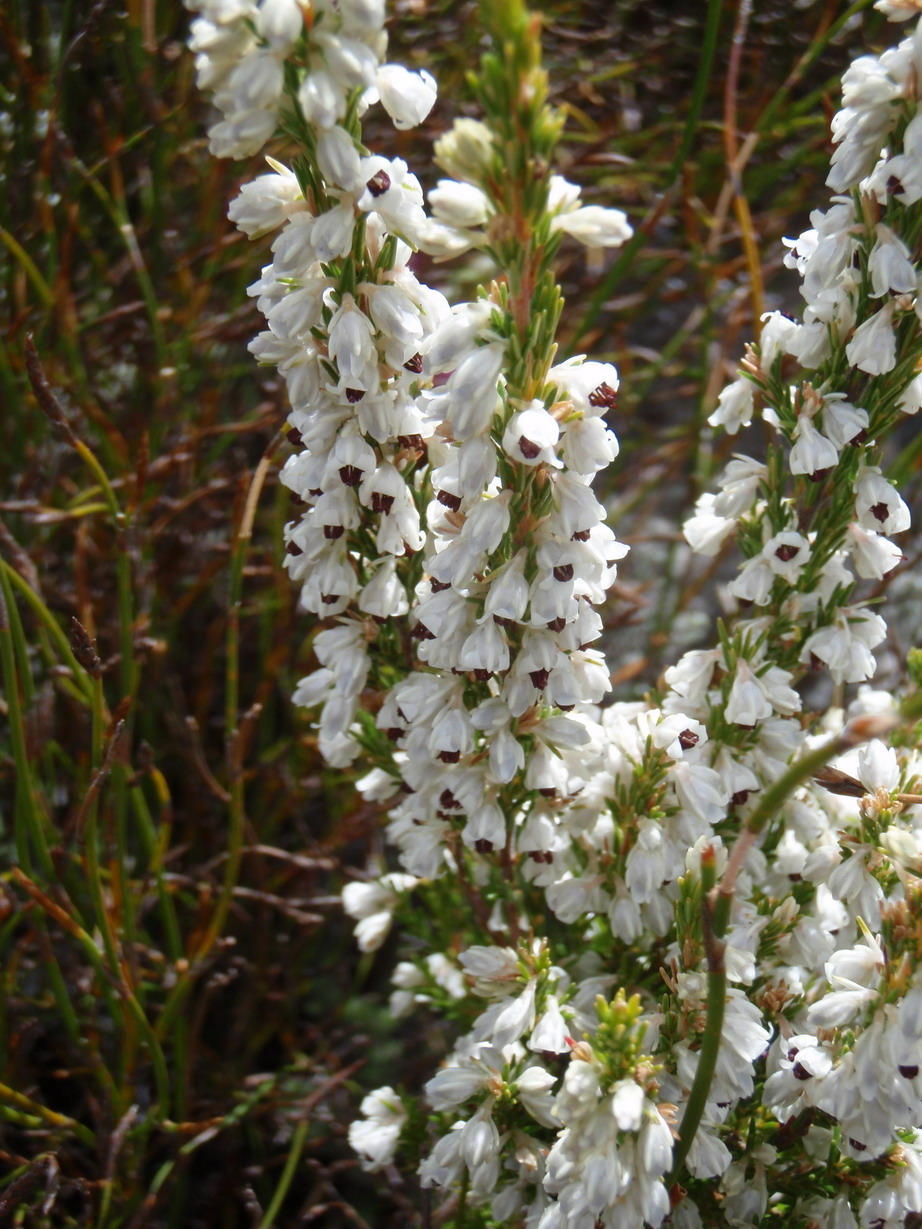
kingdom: Plantae
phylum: Tracheophyta
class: Magnoliopsida
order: Ericales
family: Ericaceae
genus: Erica
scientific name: Erica calycina
